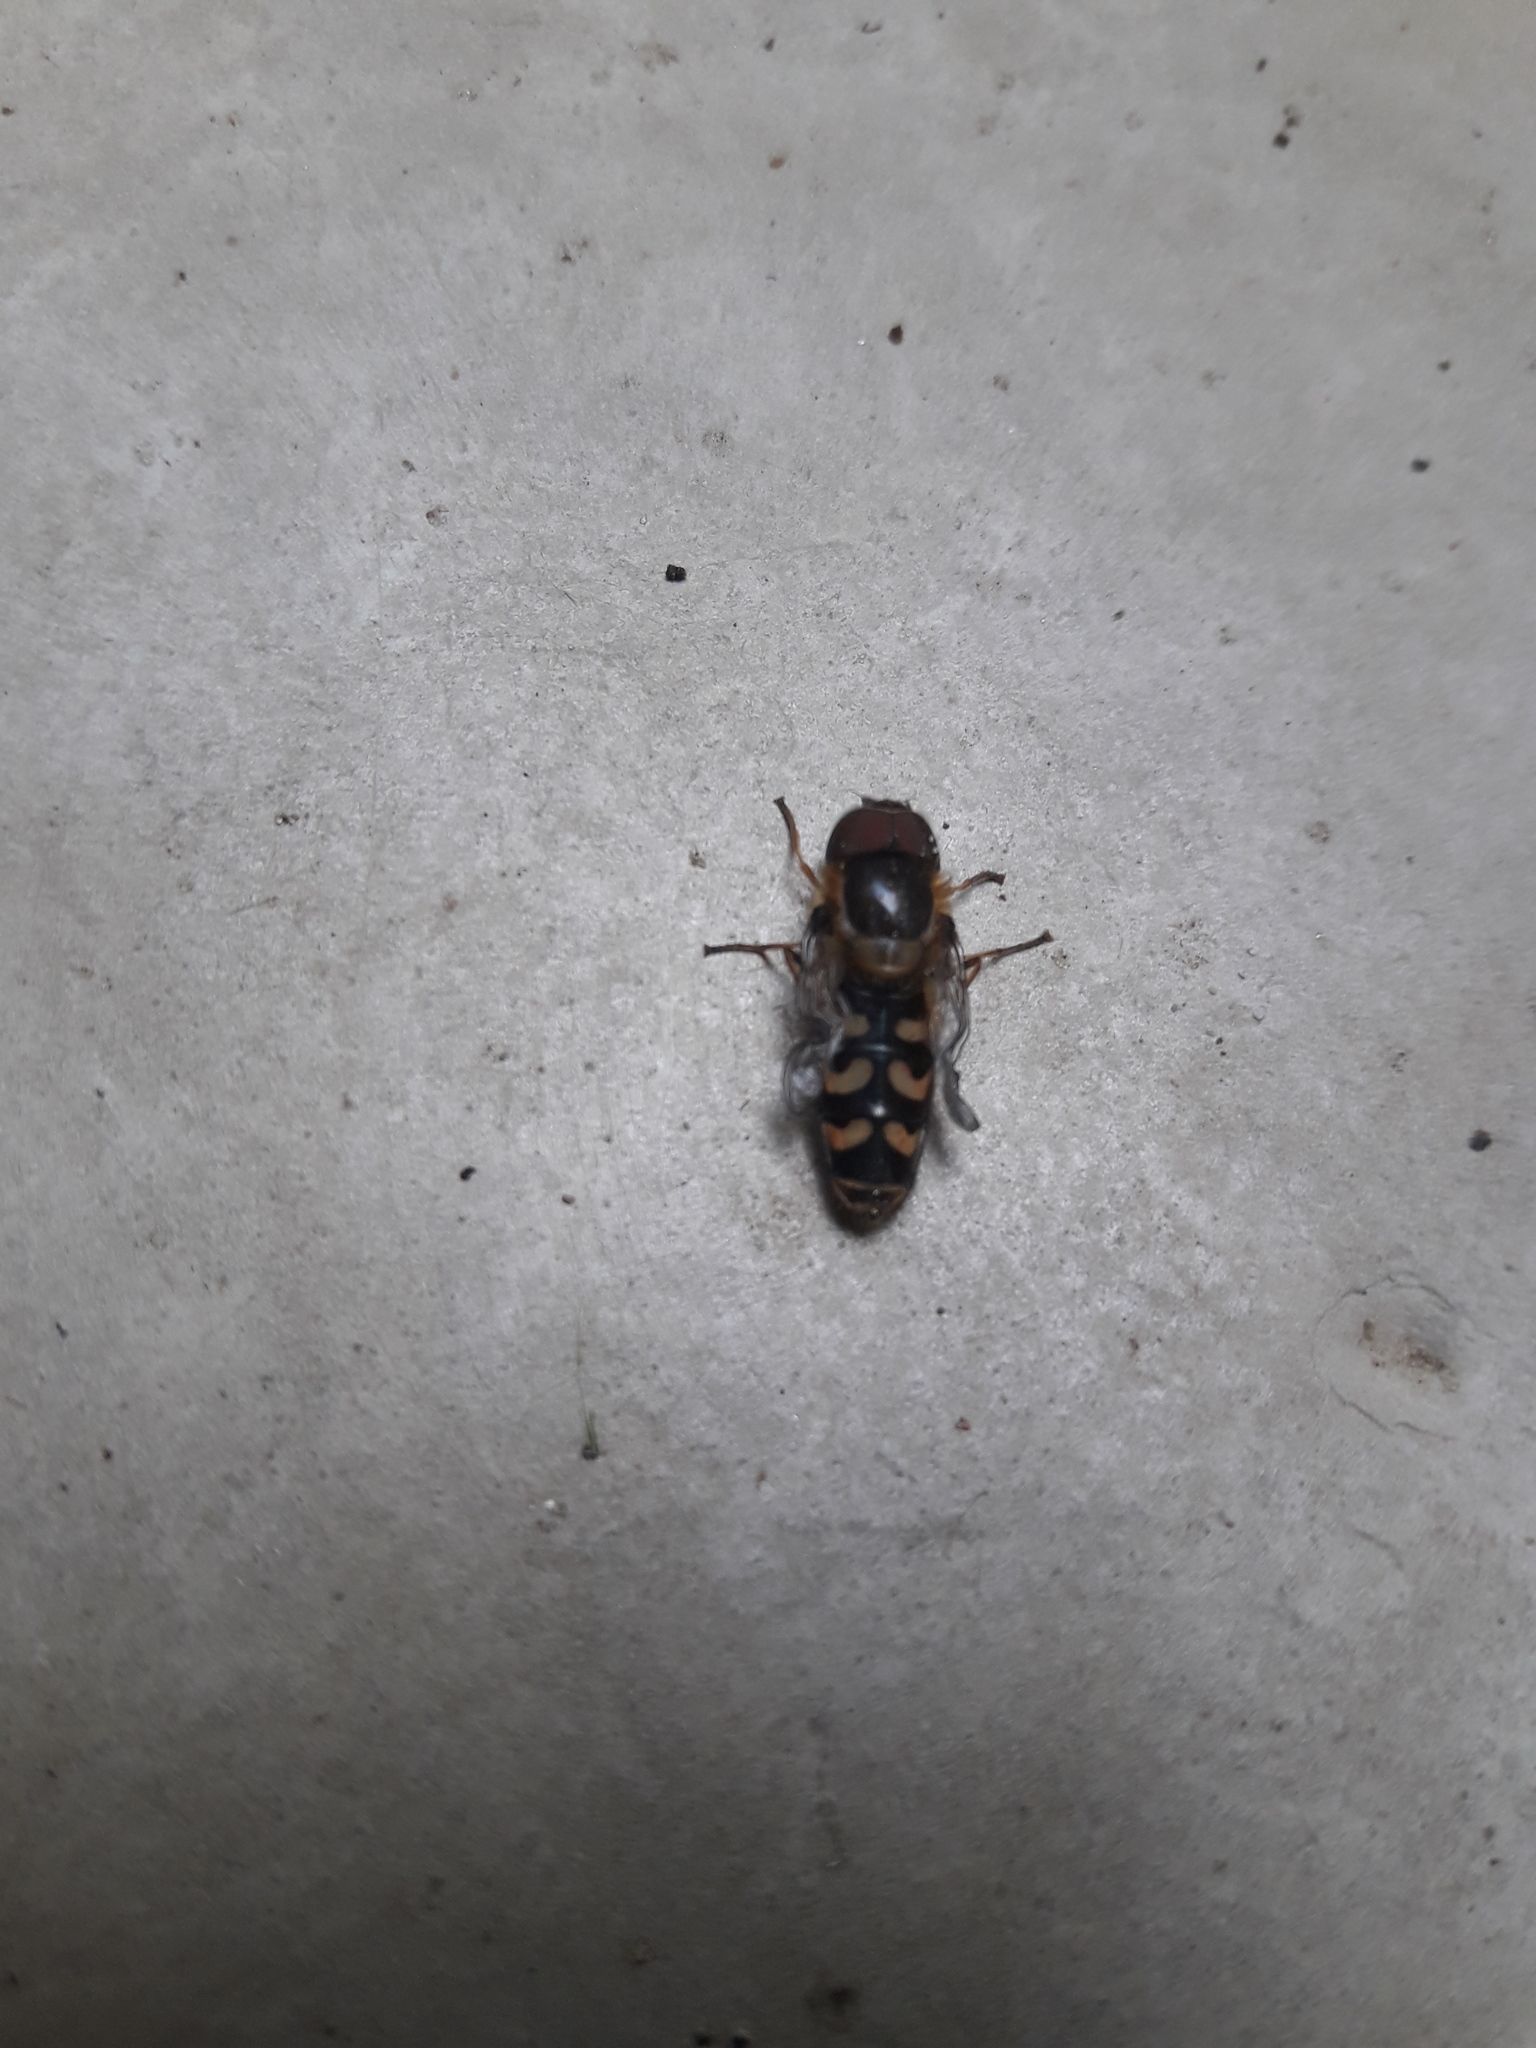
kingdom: Animalia
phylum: Arthropoda
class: Insecta
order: Diptera
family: Syrphidae
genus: Scaeva
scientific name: Scaeva selenitica
